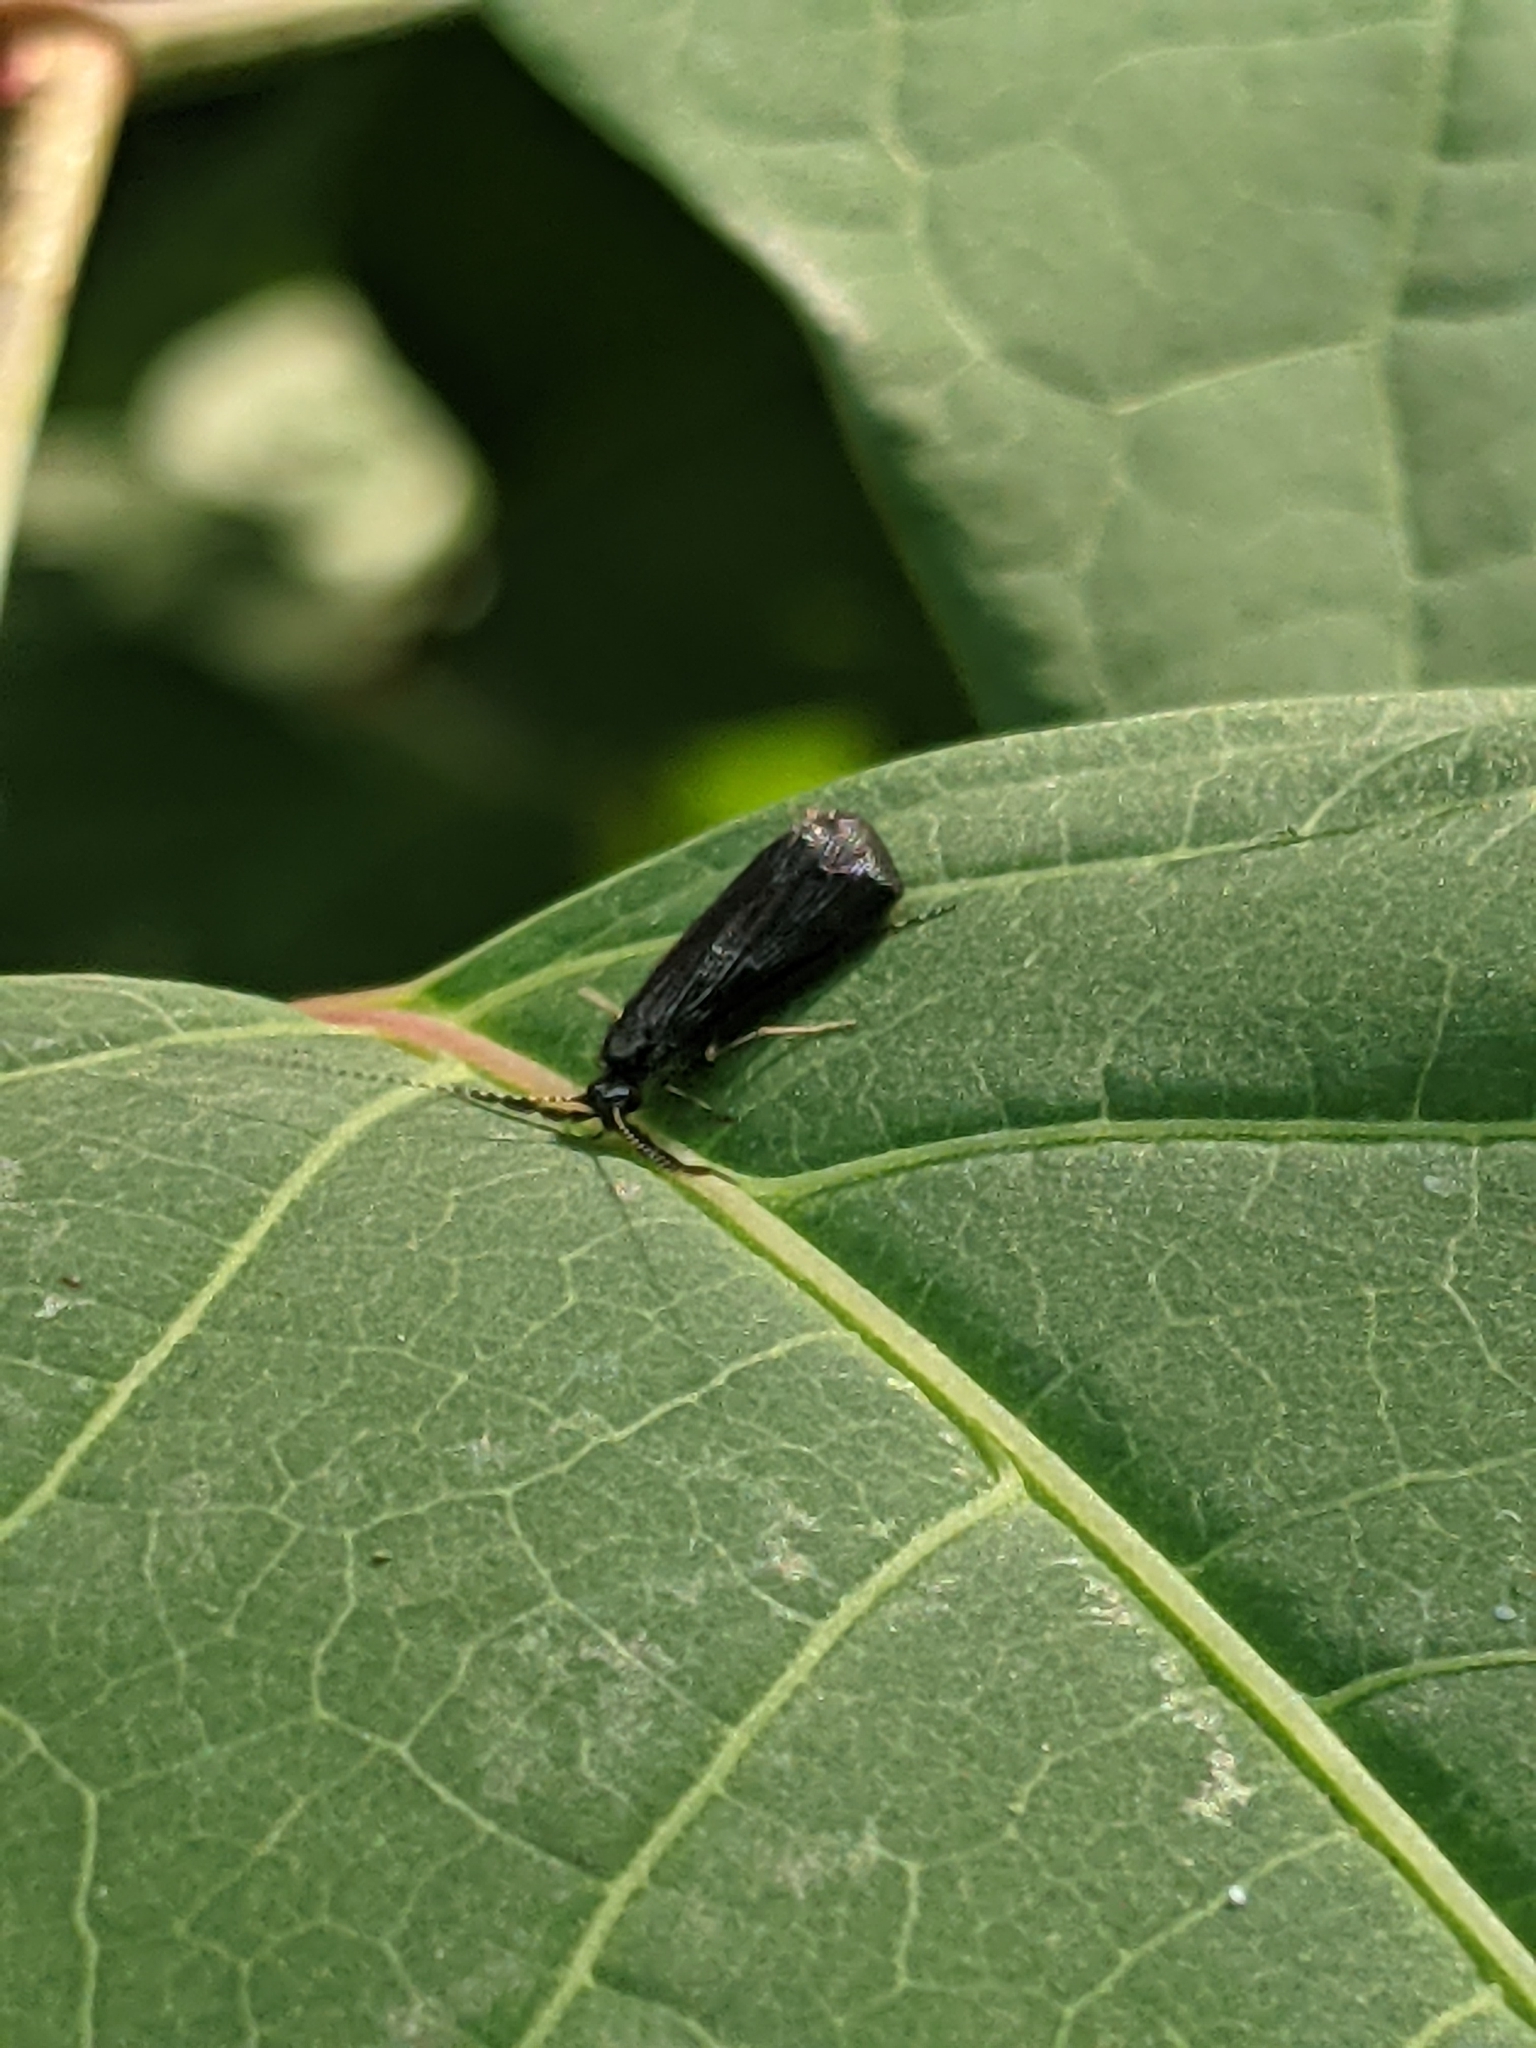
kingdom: Animalia
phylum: Arthropoda
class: Insecta
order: Trichoptera
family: Leptoceridae
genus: Mystacides
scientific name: Mystacides sepulchralis
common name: Black dancer caddisfly
